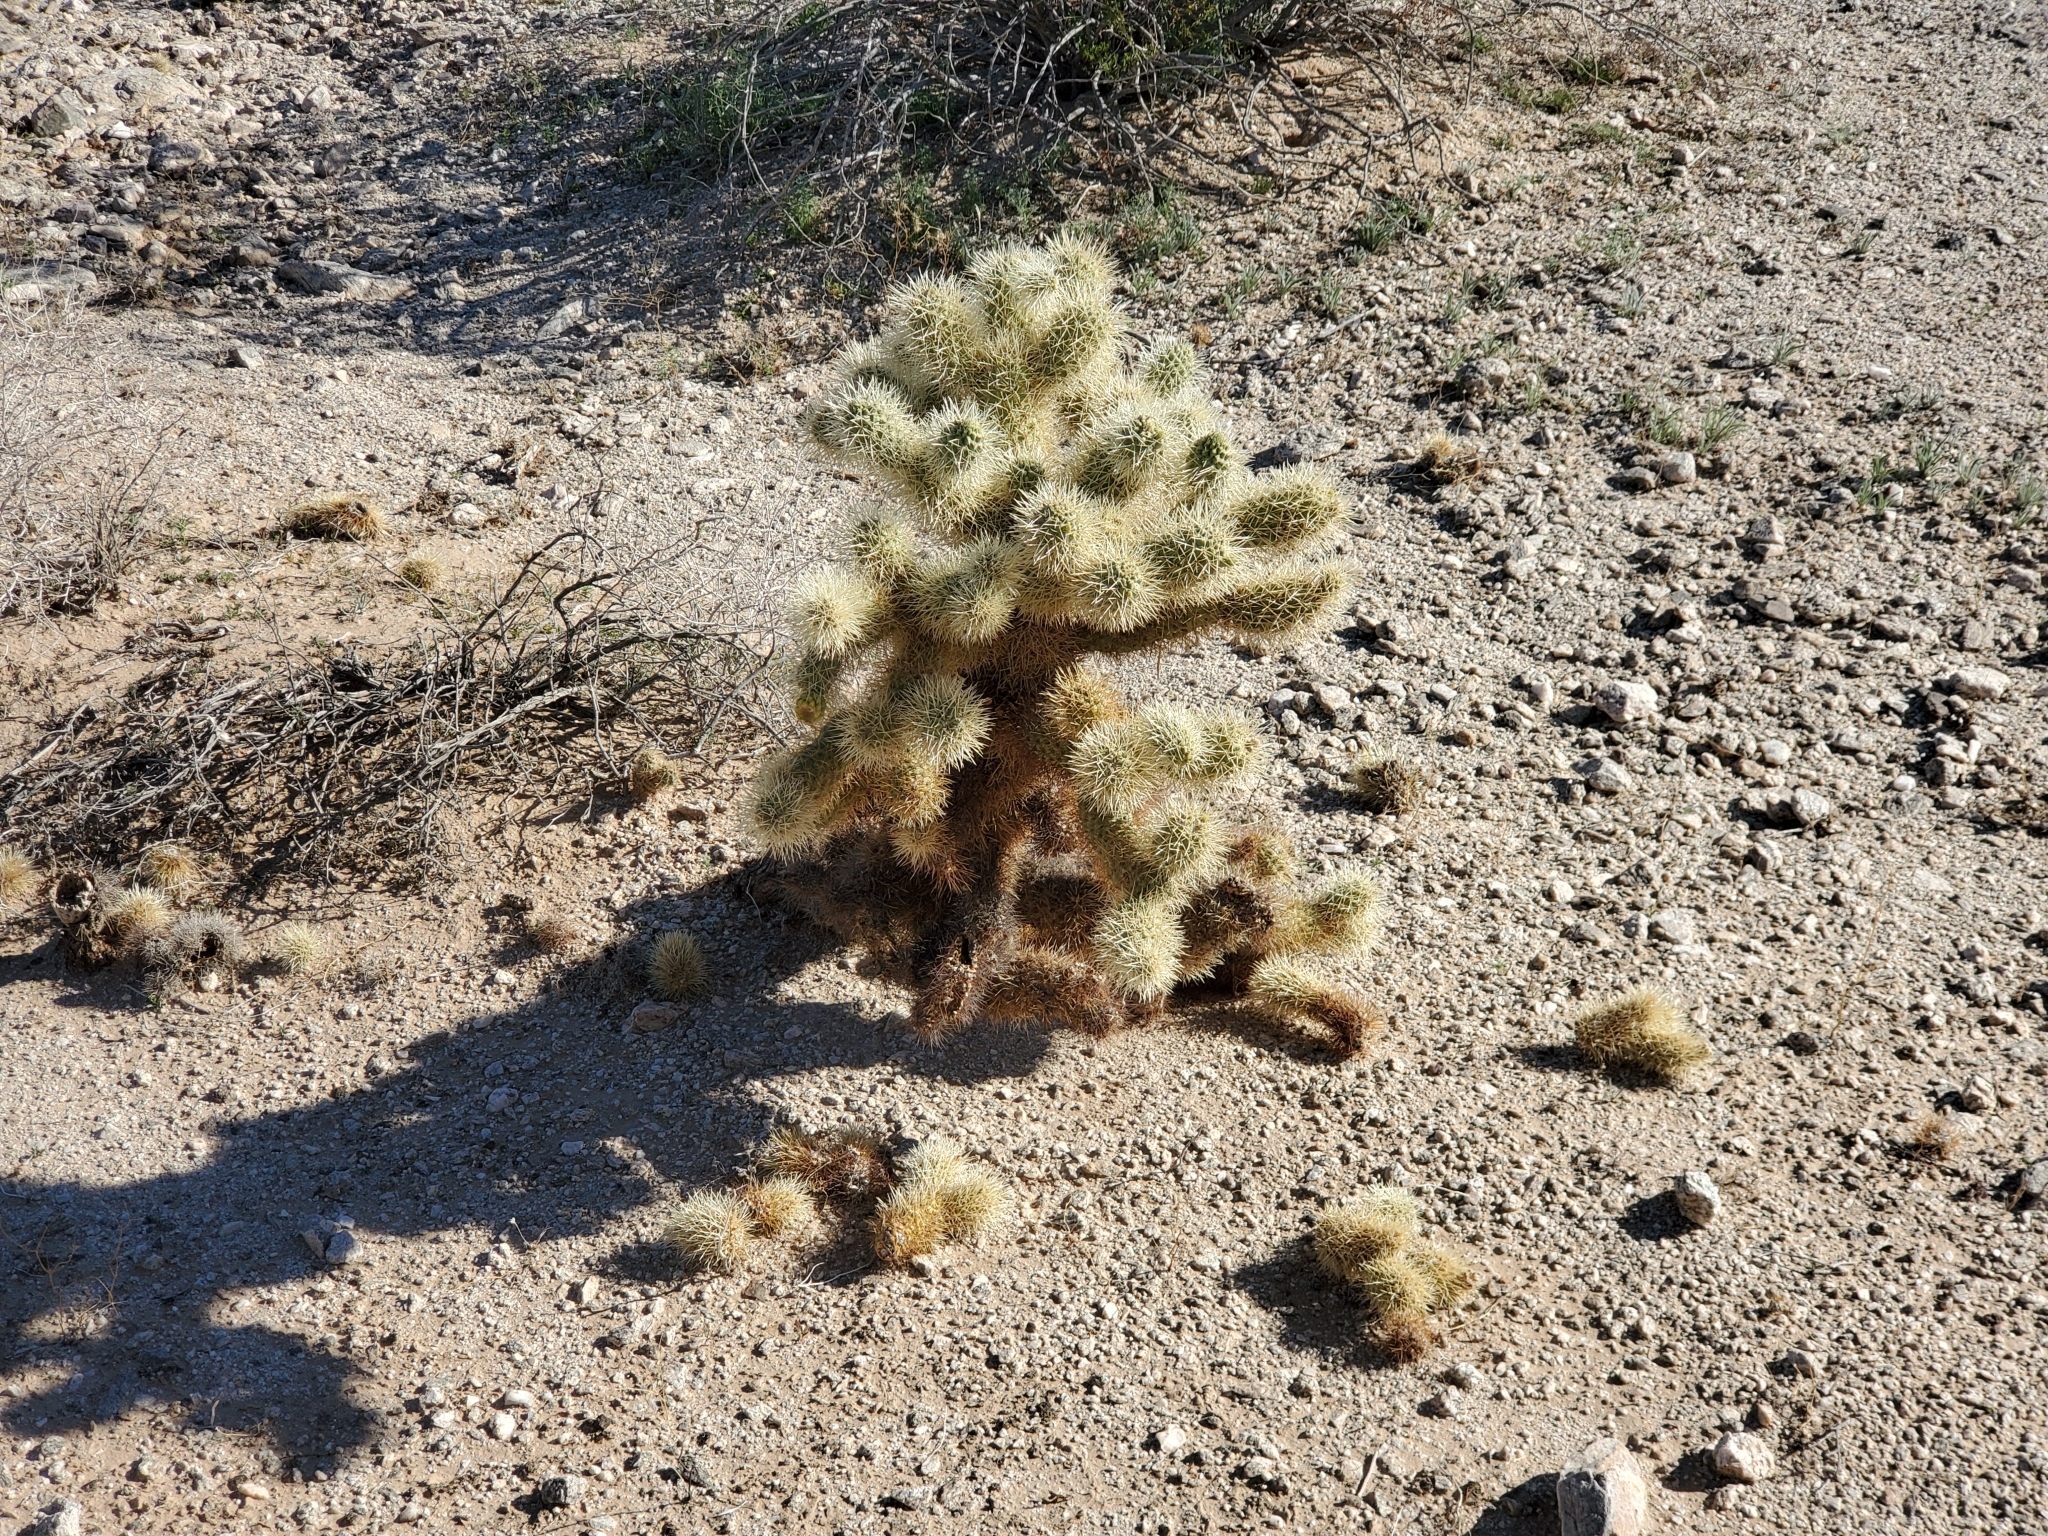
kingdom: Plantae
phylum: Tracheophyta
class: Magnoliopsida
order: Caryophyllales
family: Cactaceae
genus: Cylindropuntia
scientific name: Cylindropuntia fosbergii
